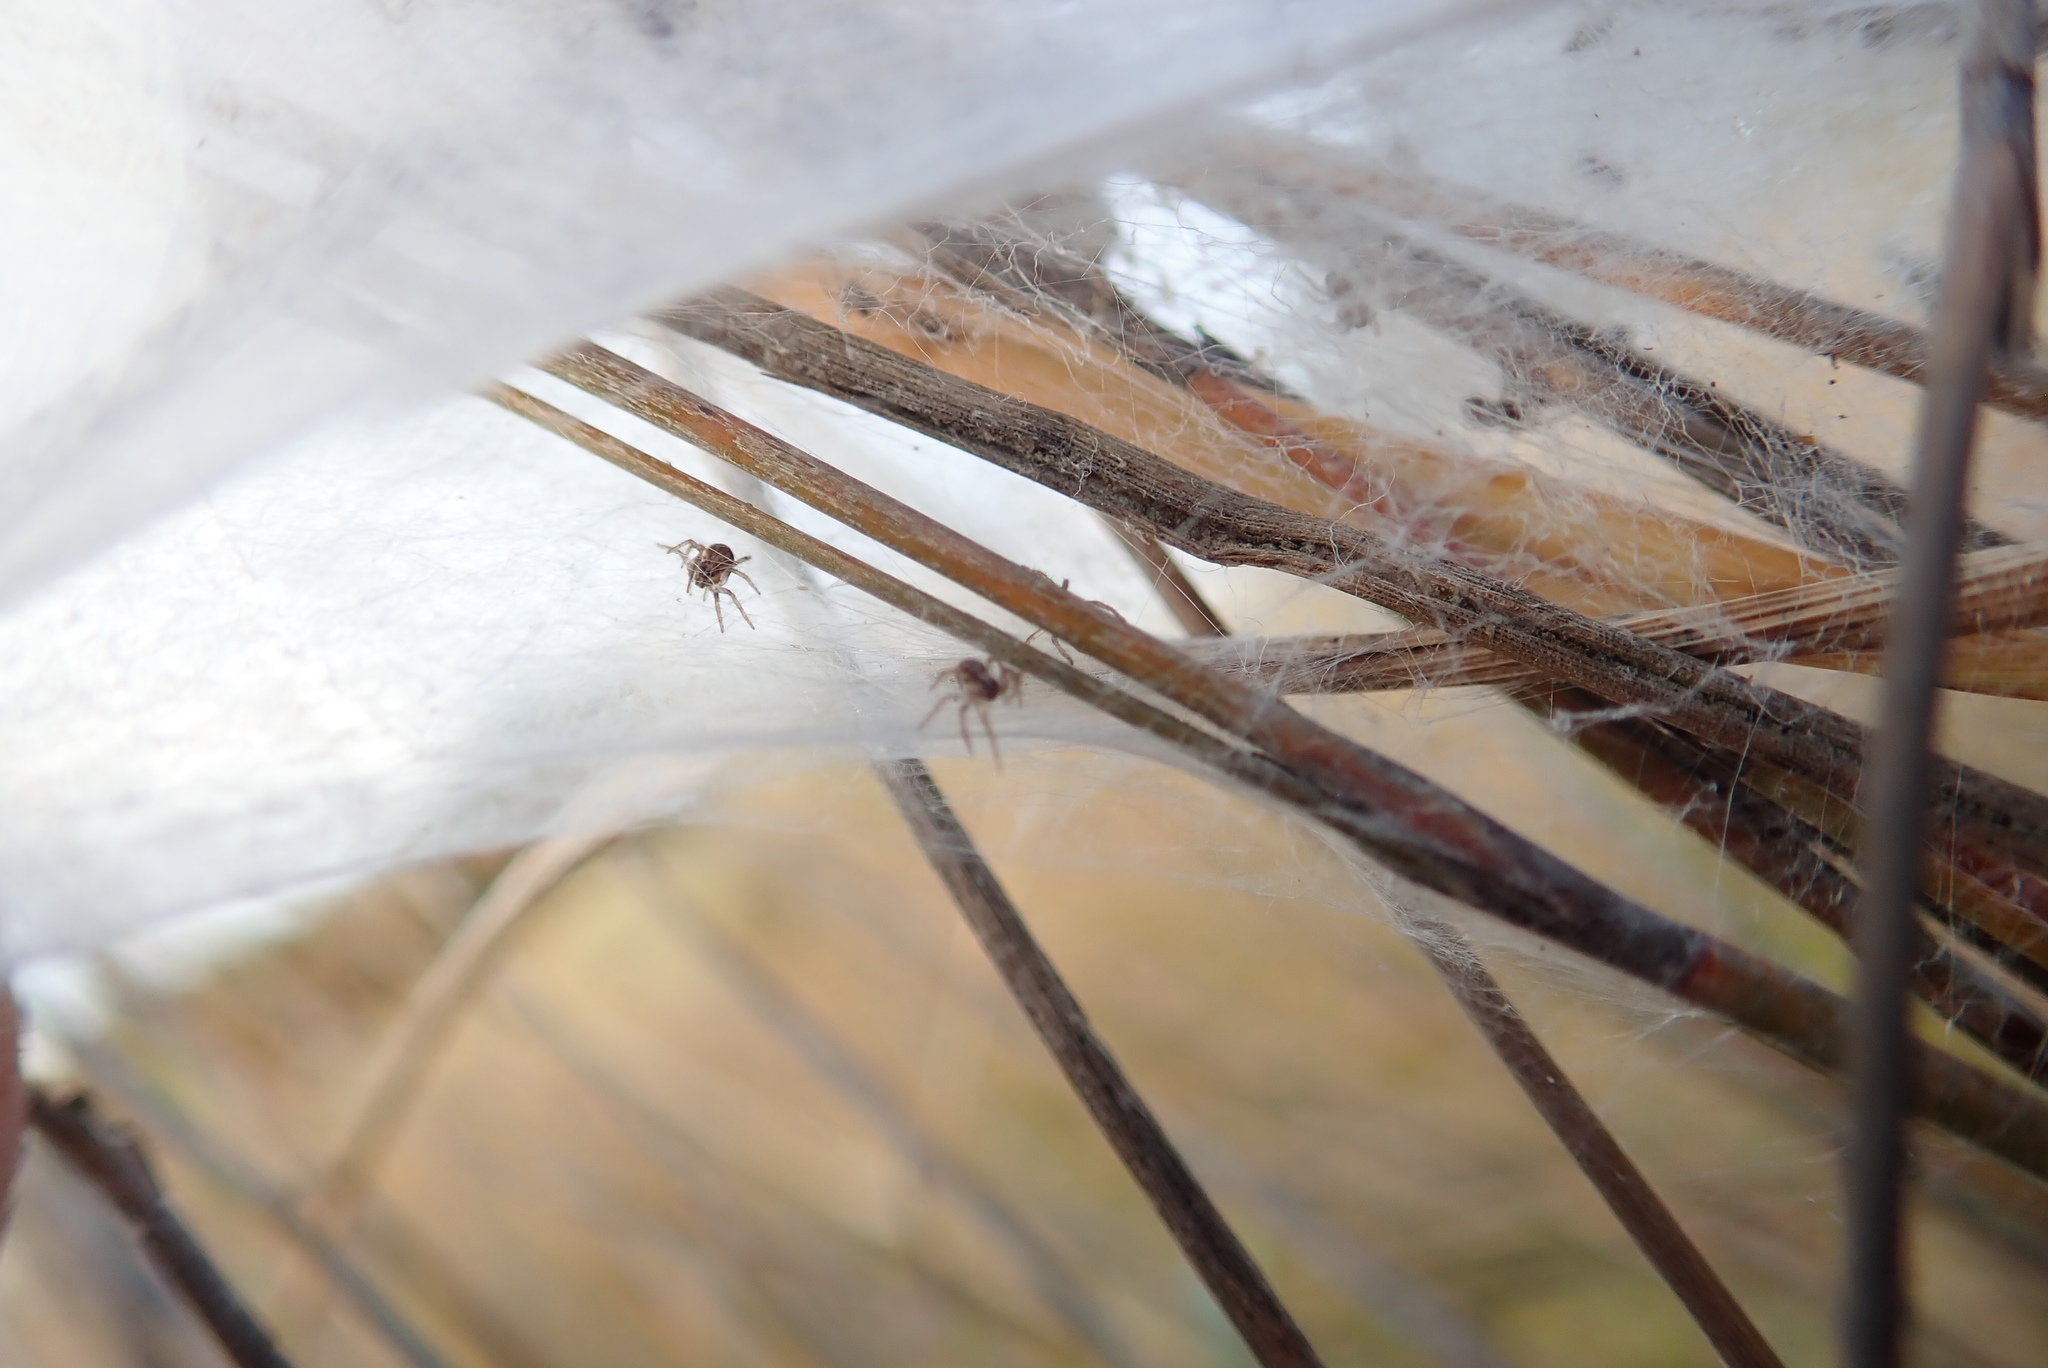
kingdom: Animalia
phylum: Arthropoda
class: Arachnida
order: Araneae
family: Pisauridae
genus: Dolomedes
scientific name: Dolomedes minor
